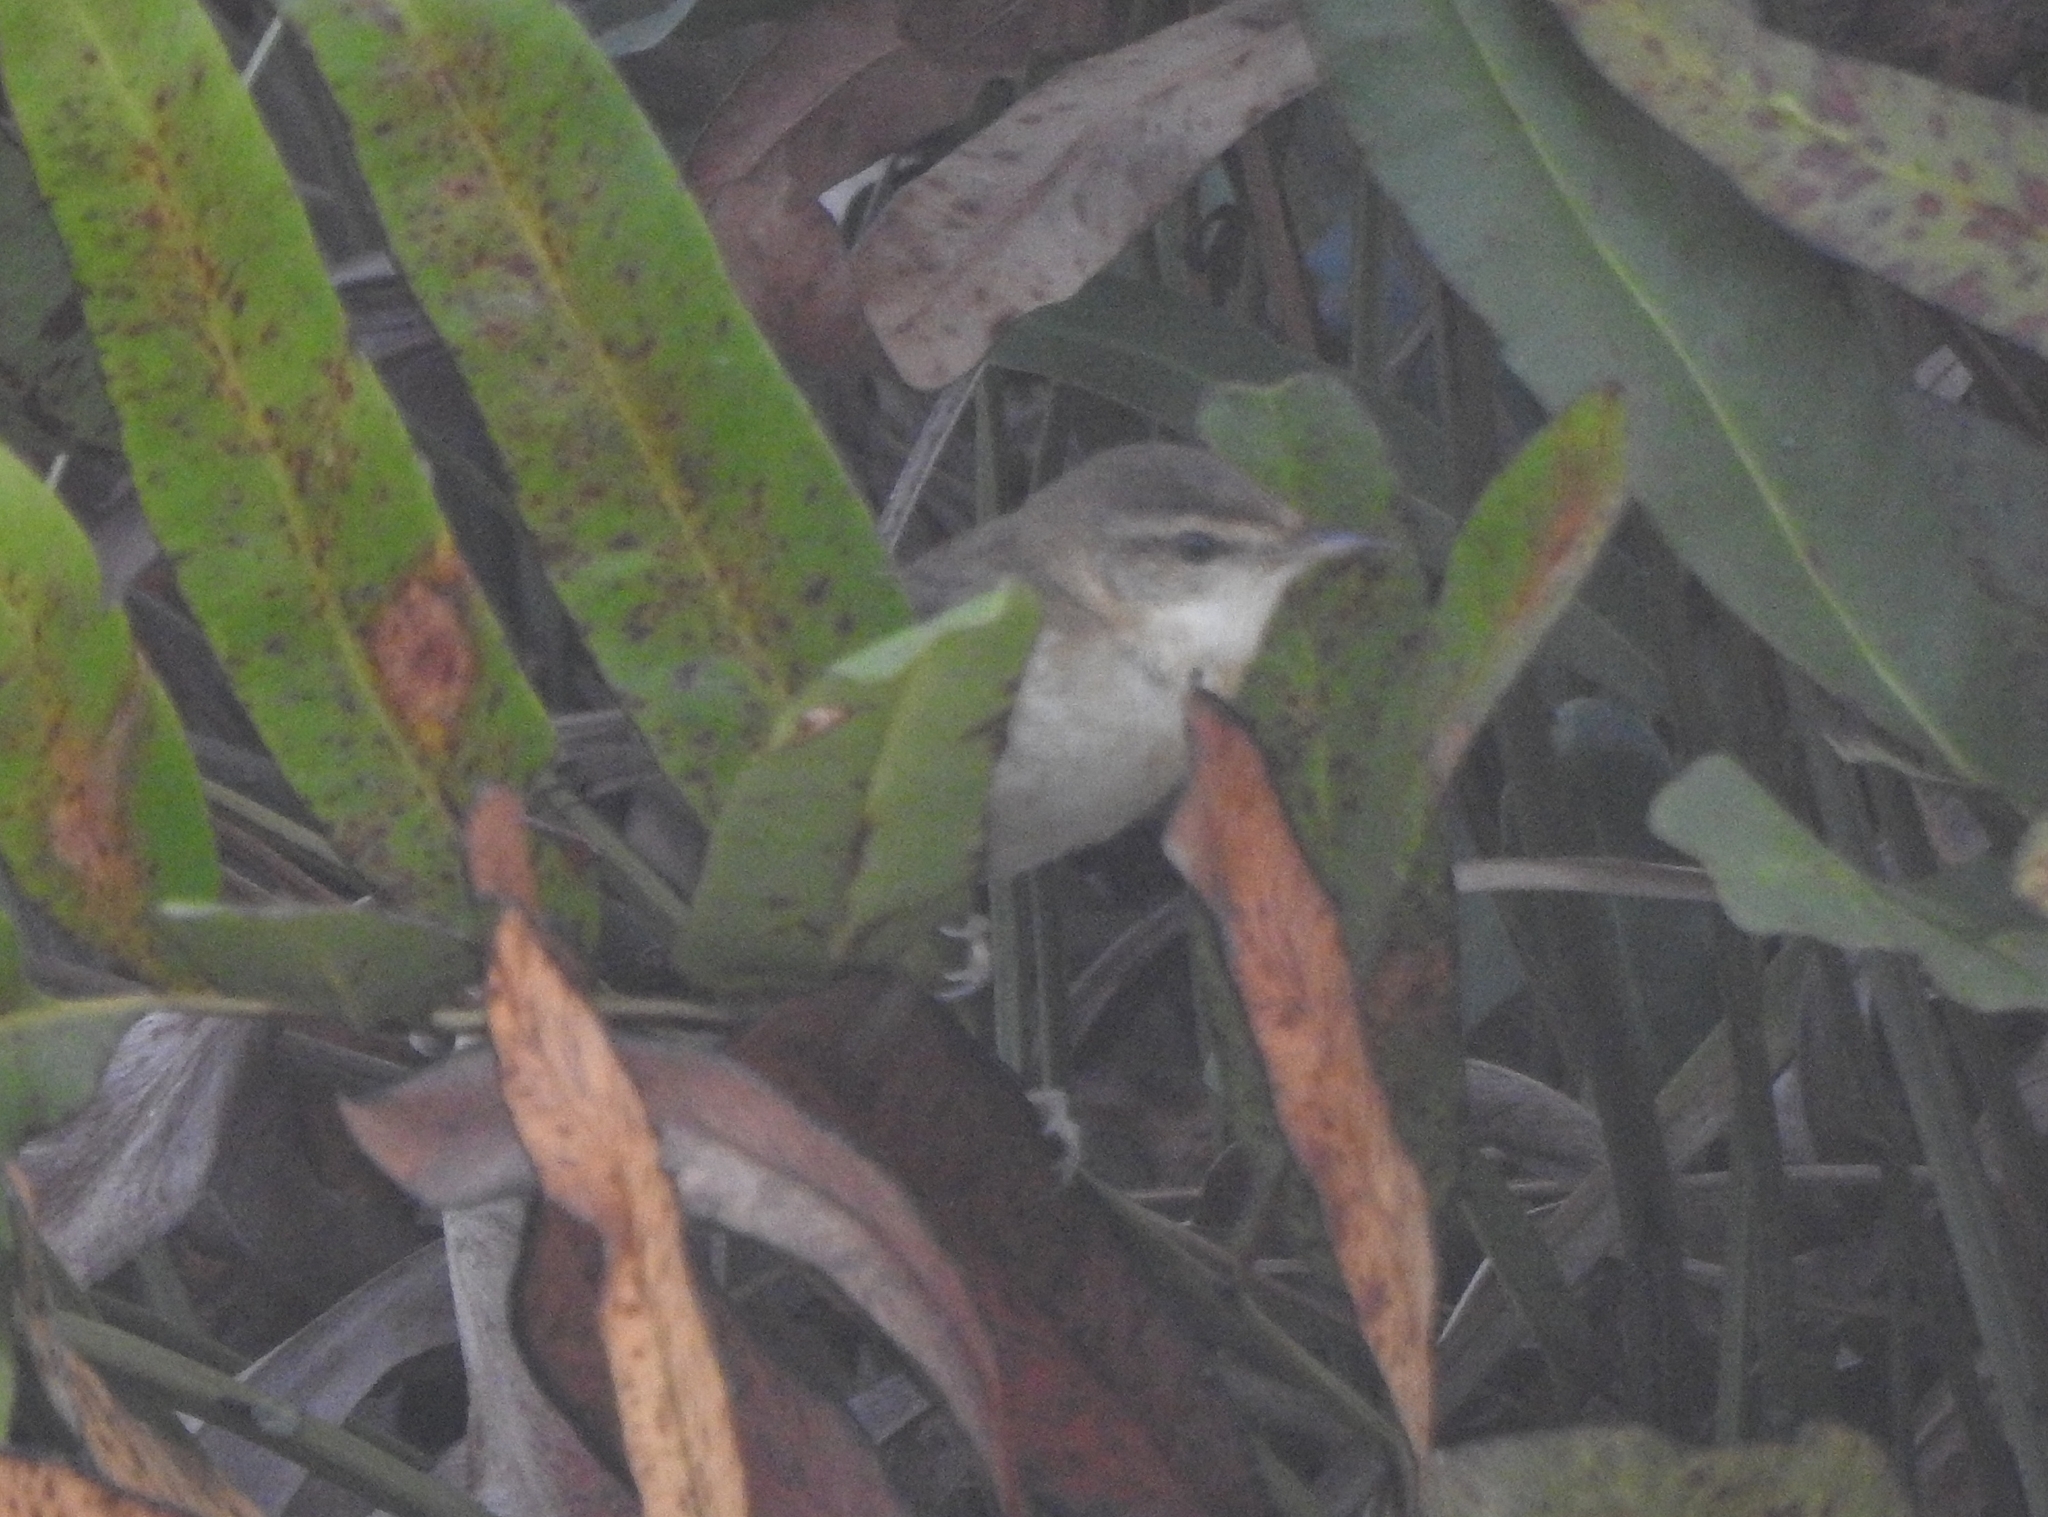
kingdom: Animalia
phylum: Chordata
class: Aves
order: Passeriformes
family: Acrocephalidae
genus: Acrocephalus
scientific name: Acrocephalus agricola
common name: Paddyfield warbler
